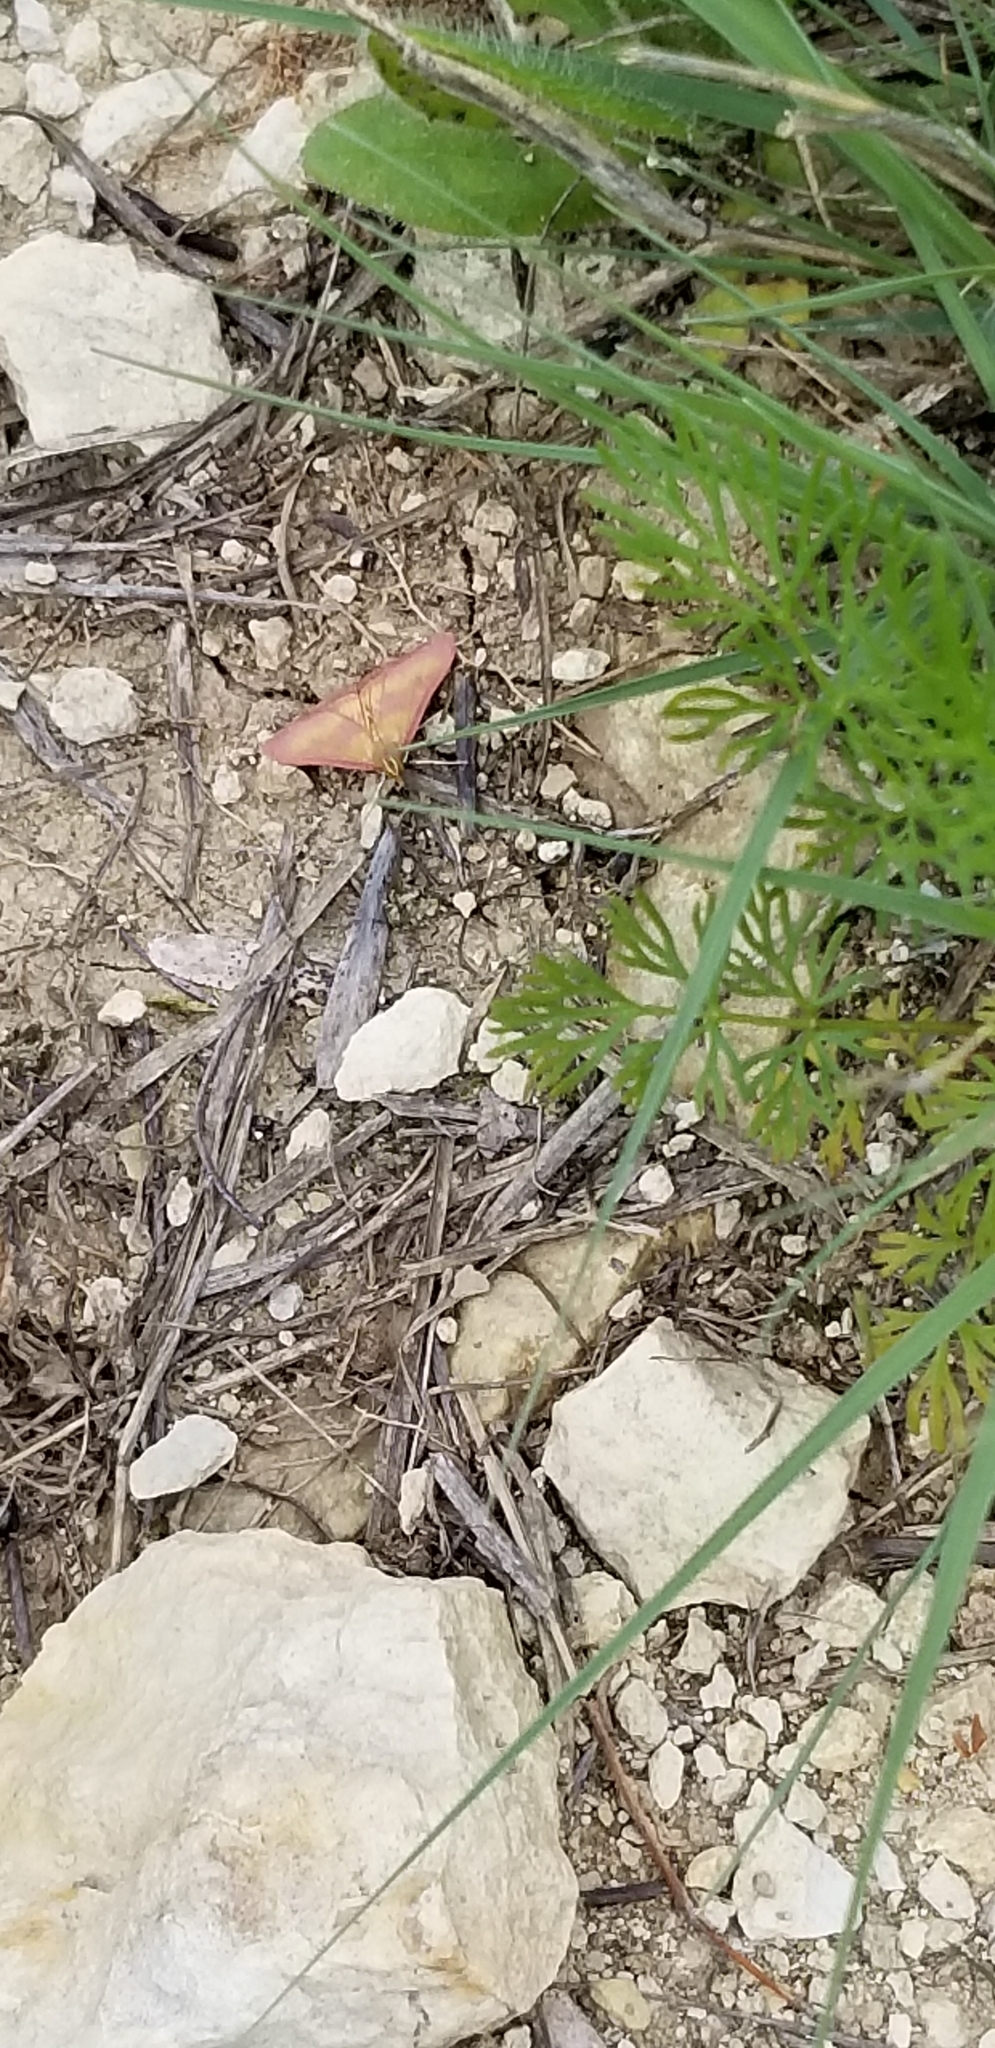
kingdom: Animalia
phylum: Arthropoda
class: Insecta
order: Lepidoptera
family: Crambidae
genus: Pyrausta
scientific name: Pyrausta laticlavia
